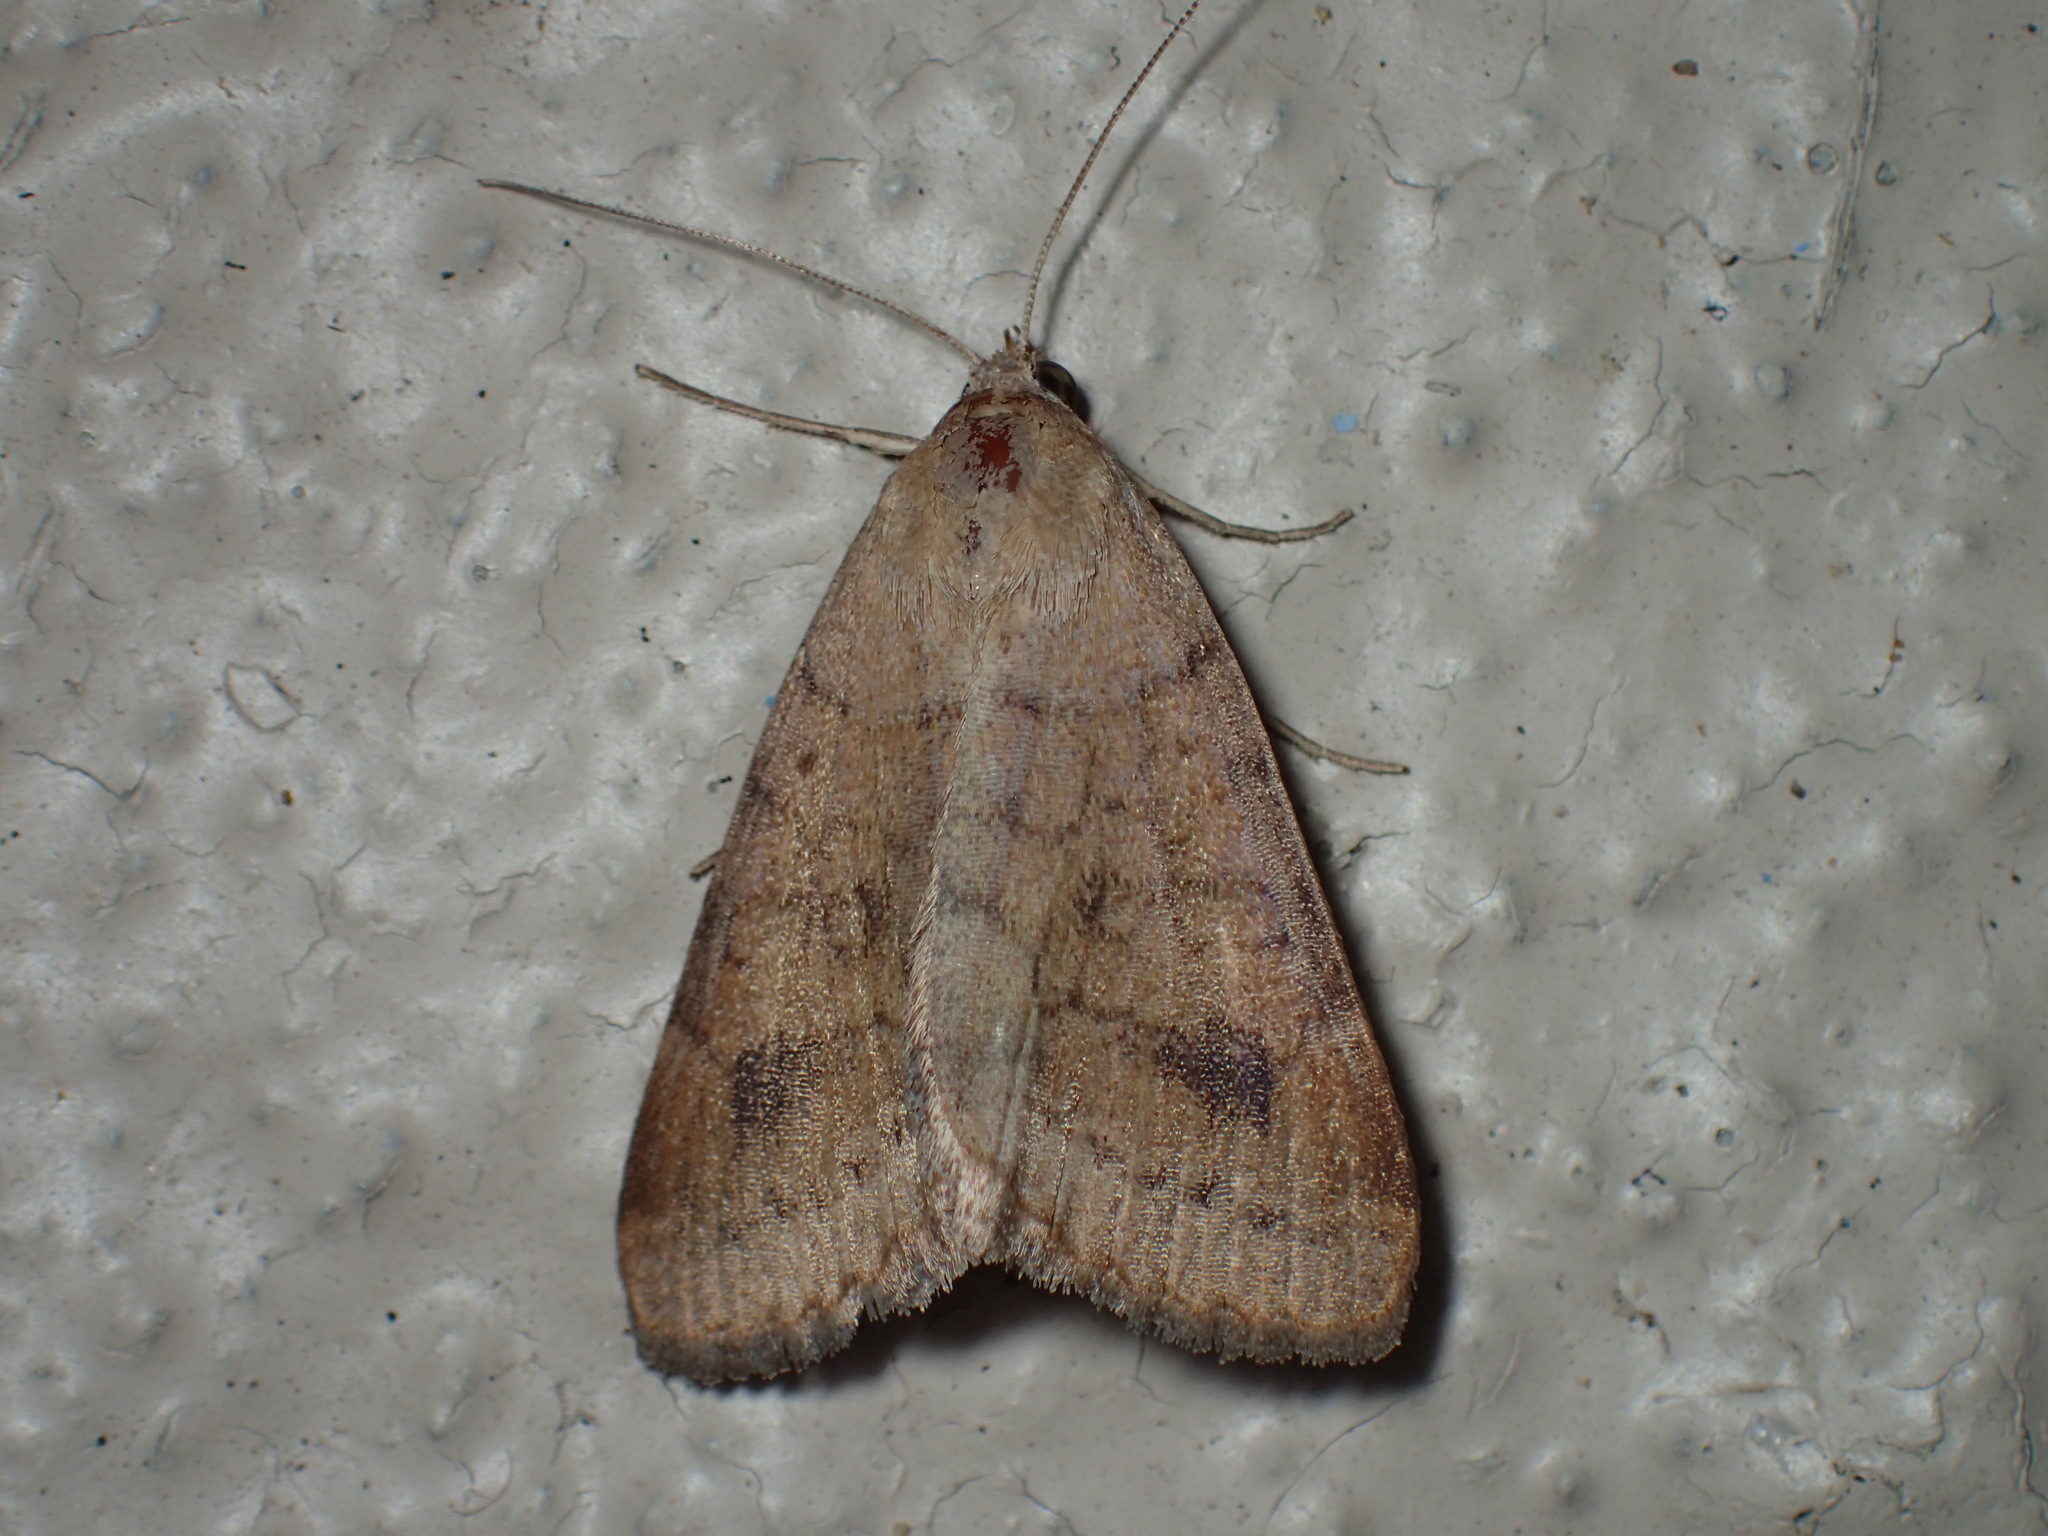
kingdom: Animalia
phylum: Arthropoda
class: Insecta
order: Lepidoptera
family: Erebidae
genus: Caenurgia
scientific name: Caenurgia chloropha
